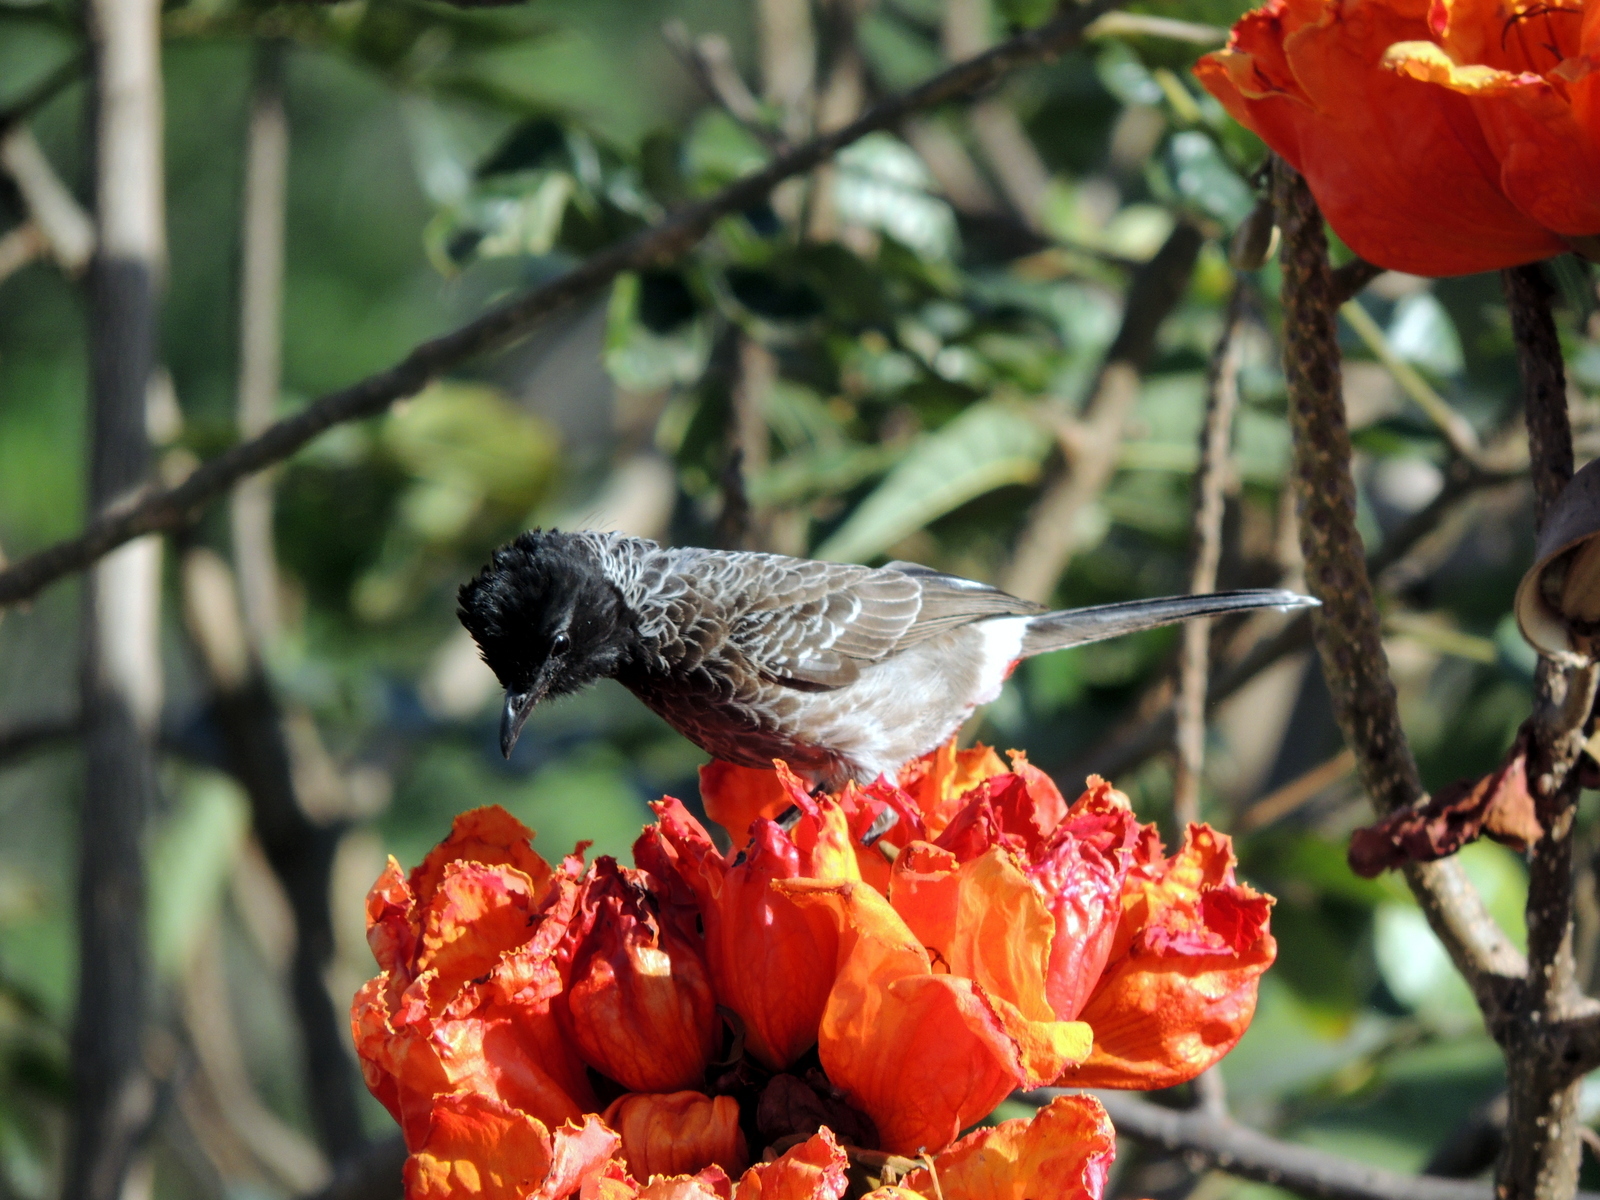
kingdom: Animalia
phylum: Chordata
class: Aves
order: Passeriformes
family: Pycnonotidae
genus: Pycnonotus
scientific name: Pycnonotus cafer
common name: Red-vented bulbul
